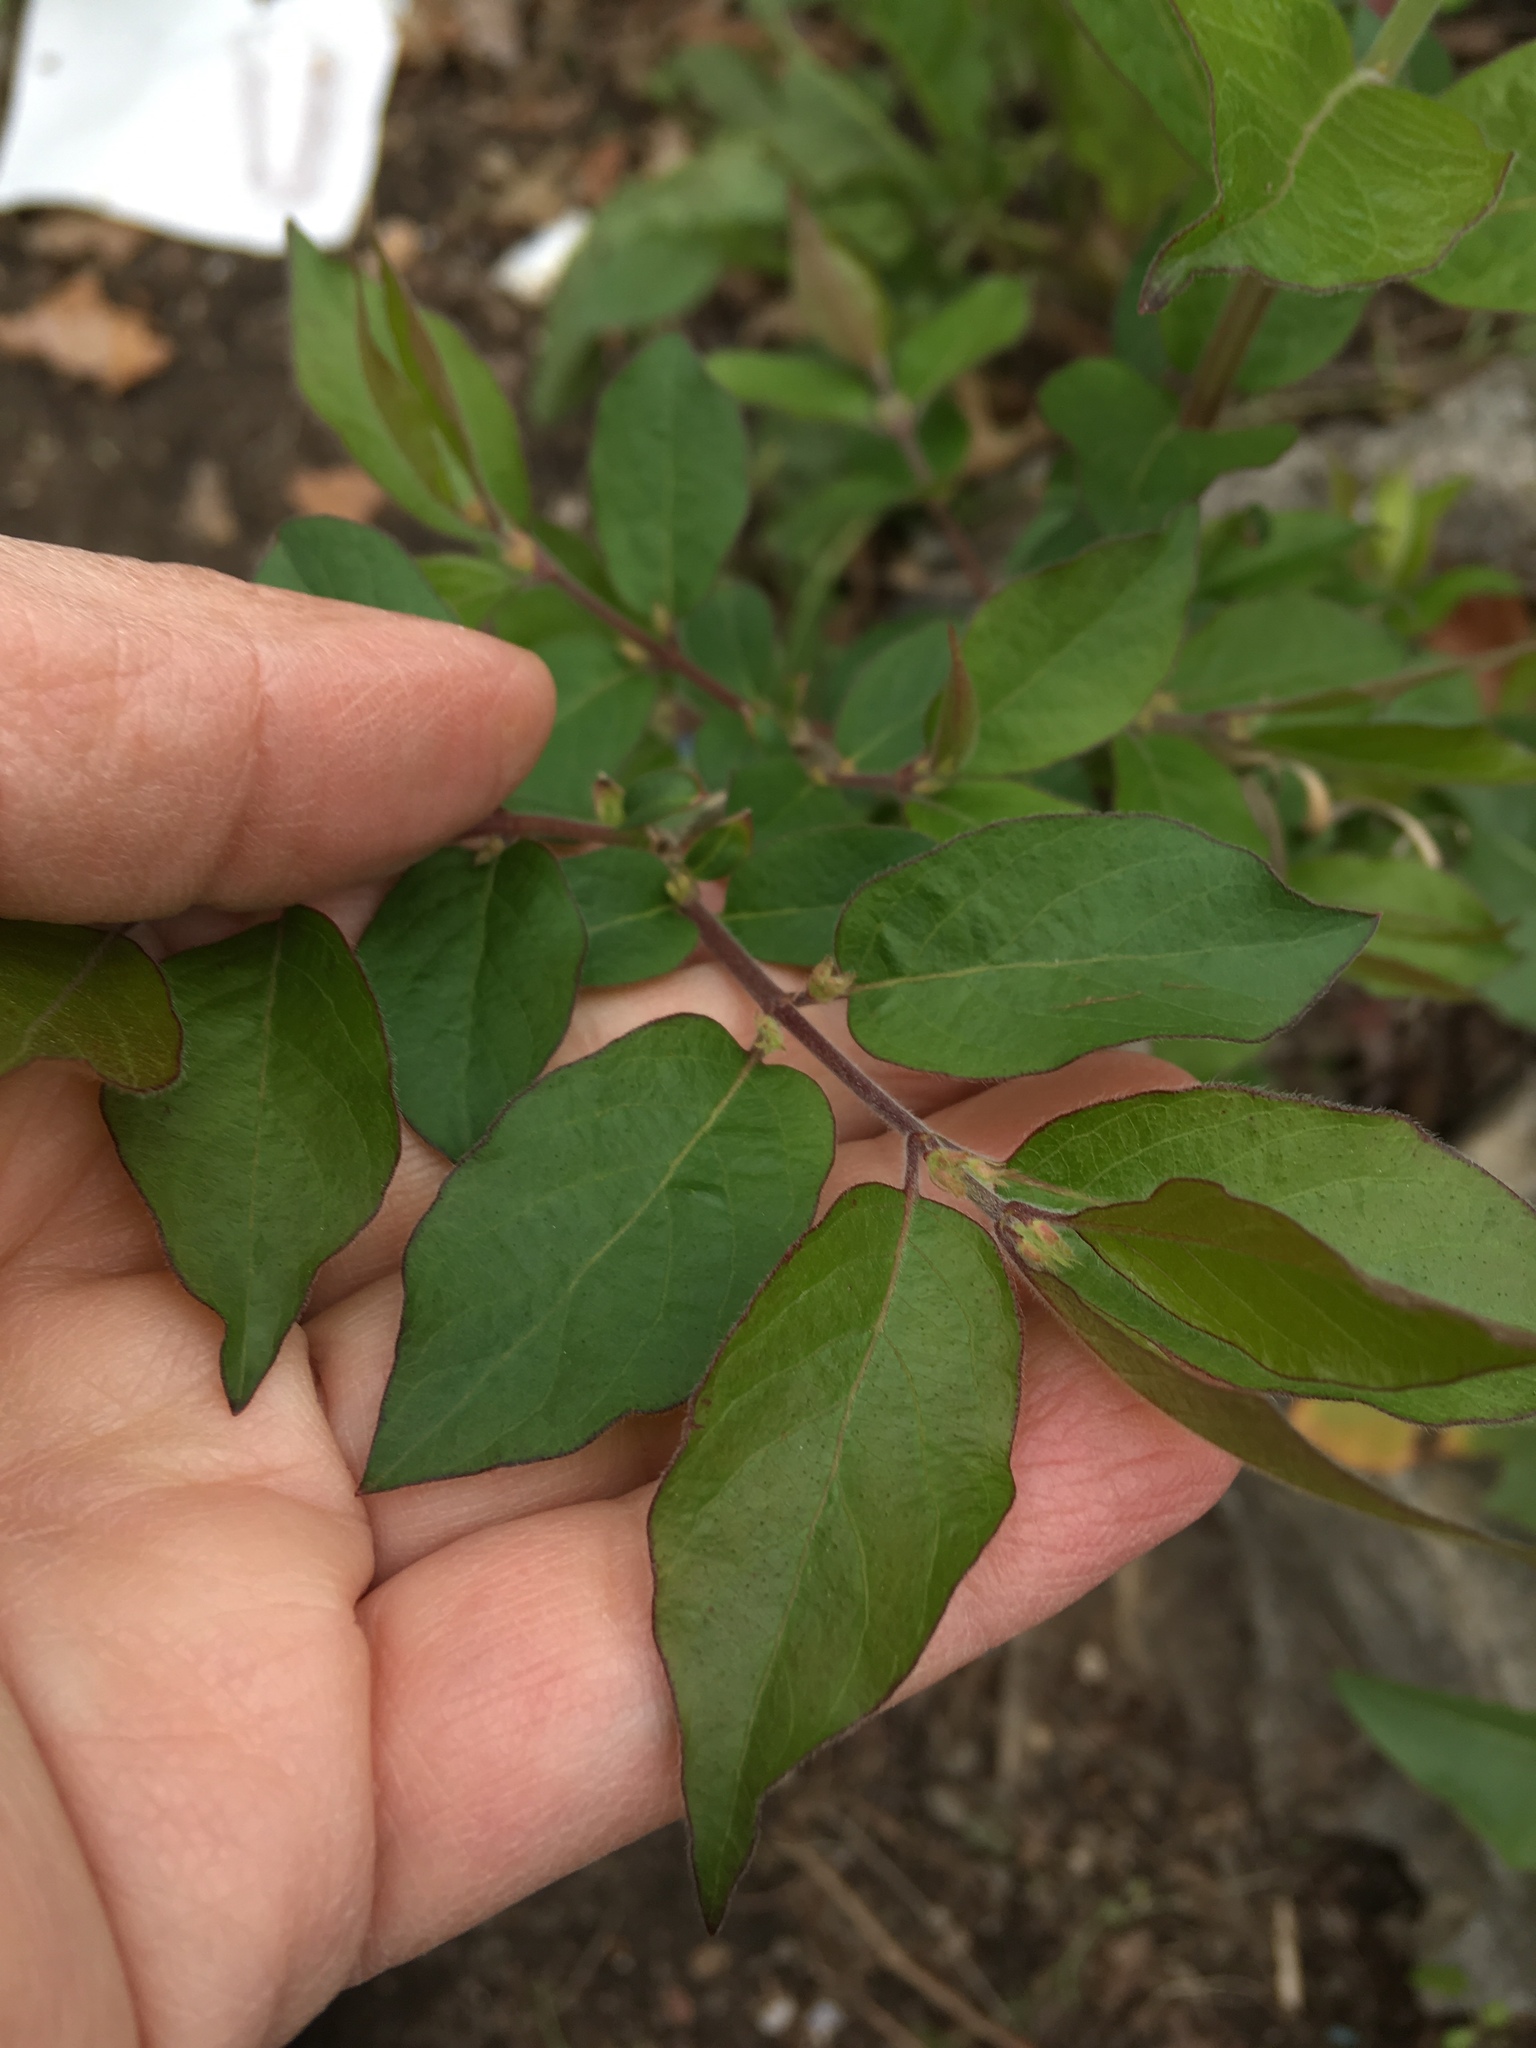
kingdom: Plantae
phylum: Tracheophyta
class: Magnoliopsida
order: Dipsacales
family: Caprifoliaceae
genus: Lonicera
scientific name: Lonicera maackii
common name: Amur honeysuckle
